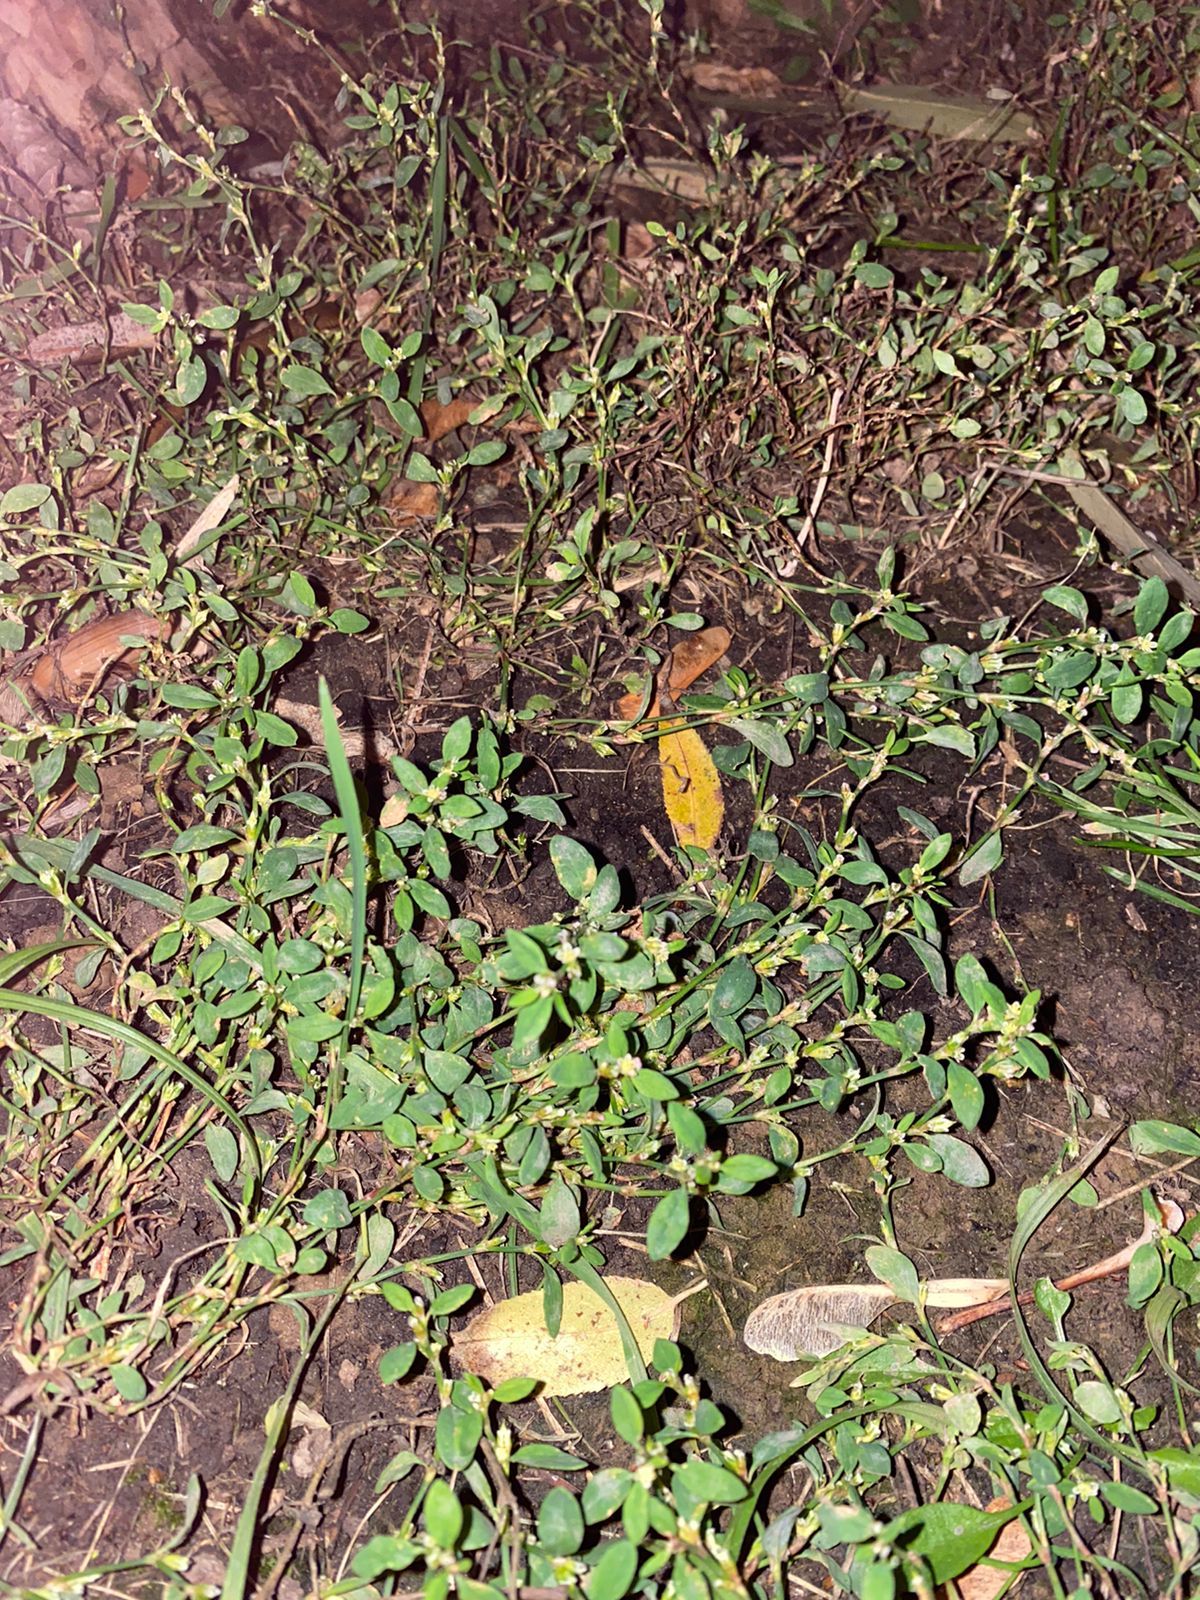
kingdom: Plantae
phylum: Tracheophyta
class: Magnoliopsida
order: Caryophyllales
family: Polygonaceae
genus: Polygonum
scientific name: Polygonum
